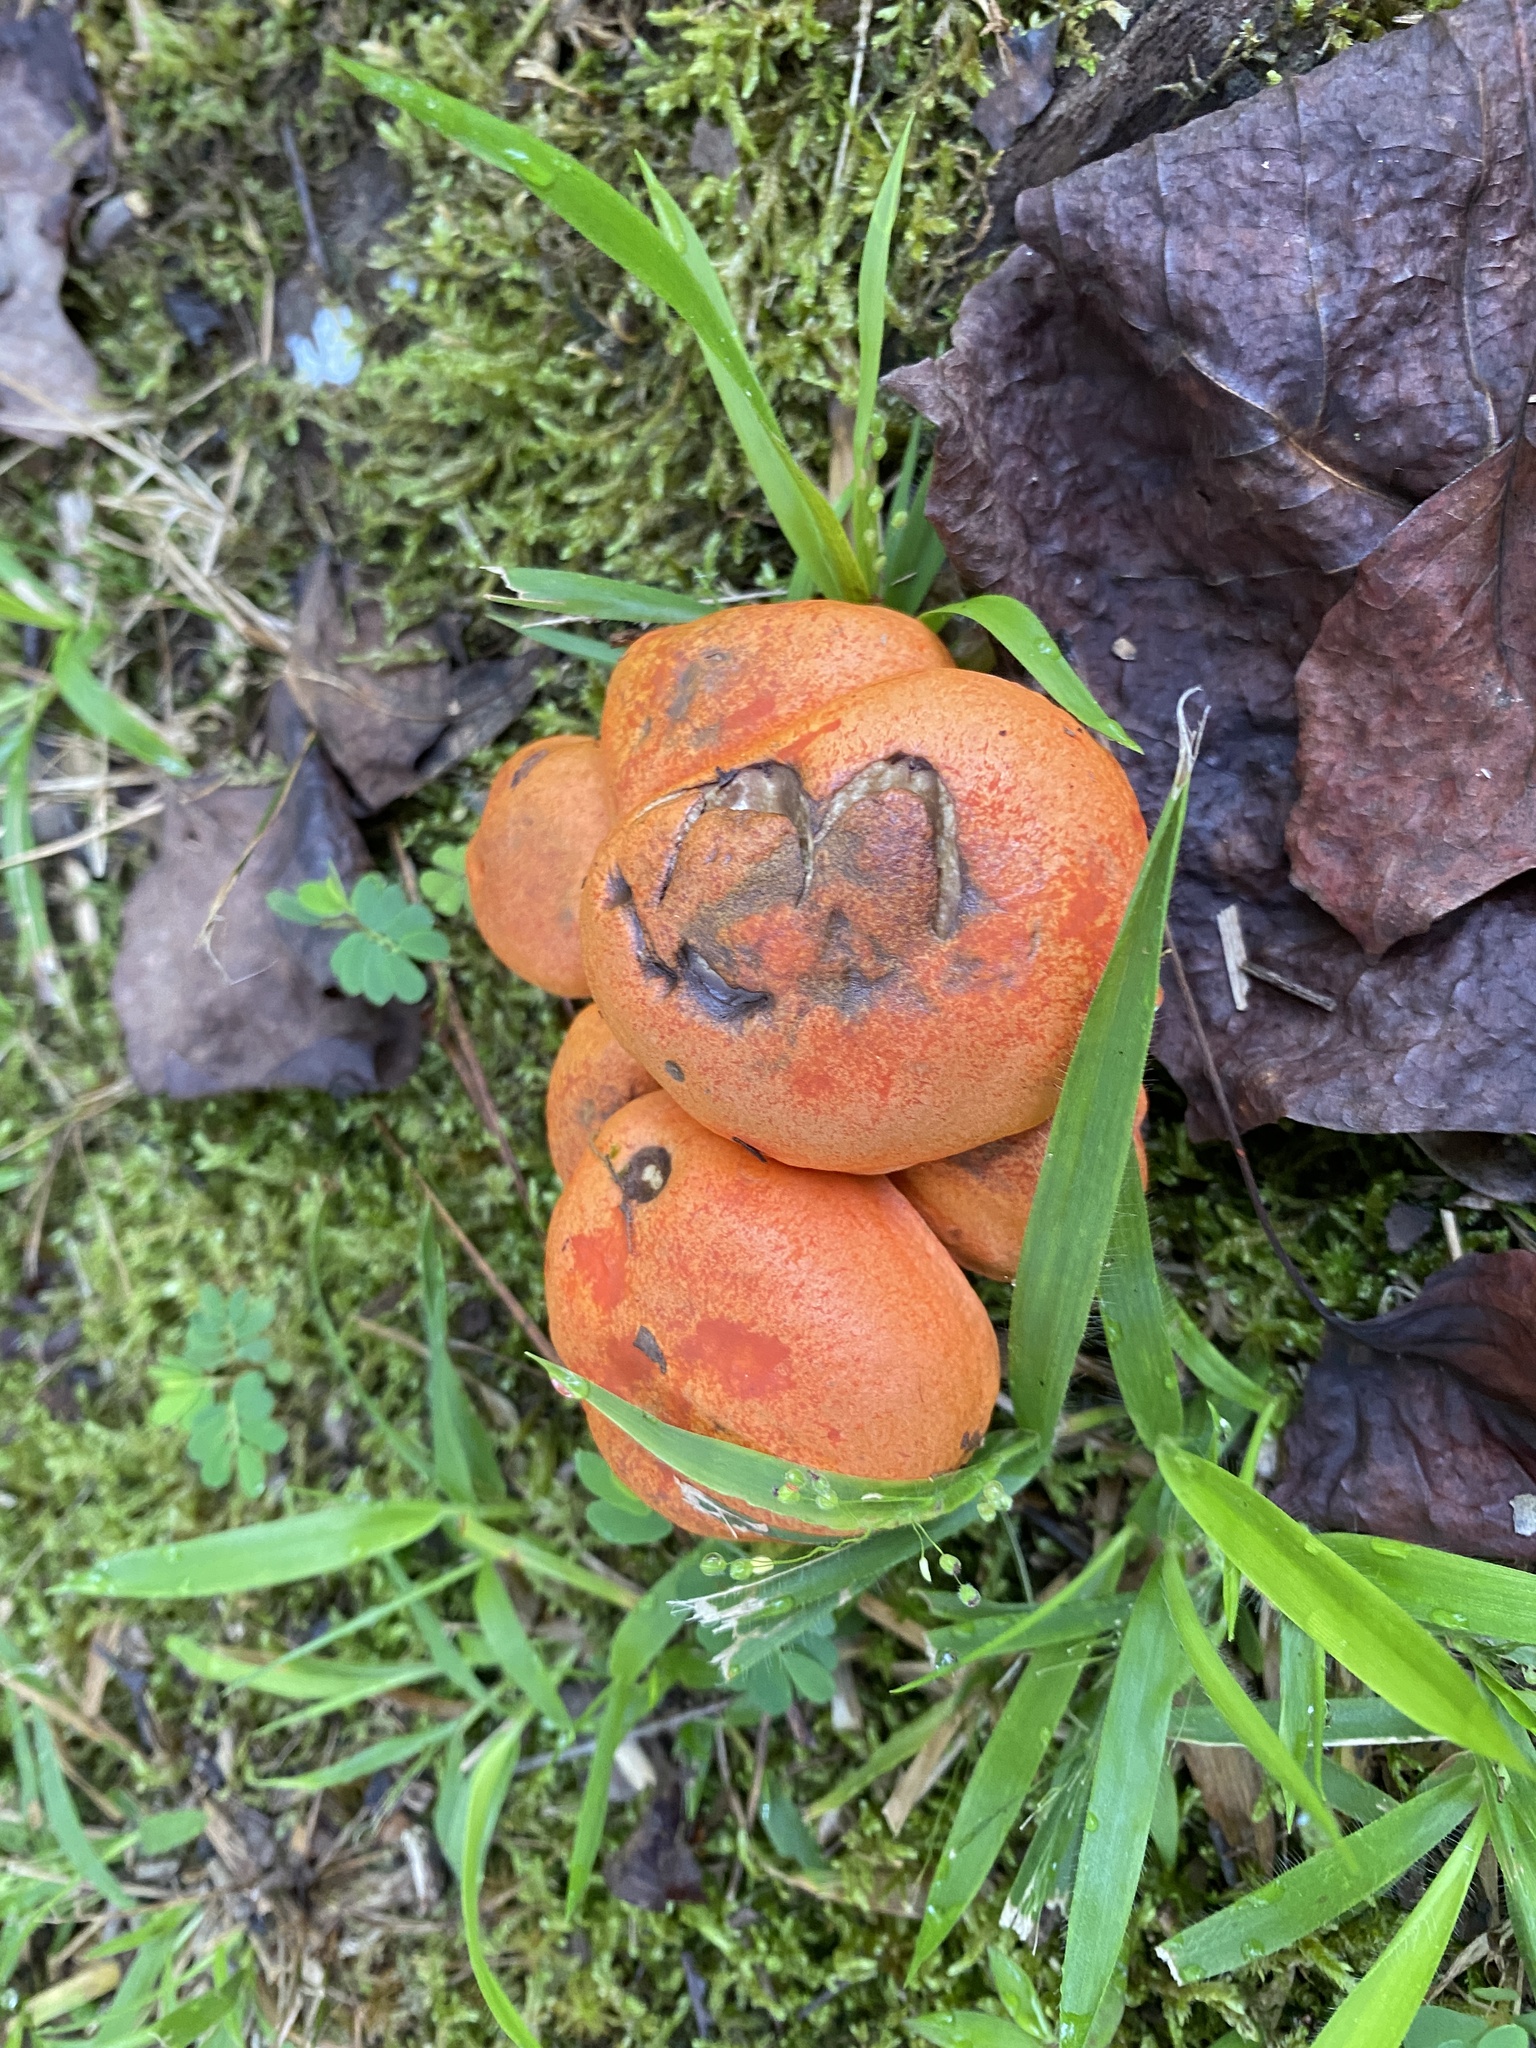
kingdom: Fungi
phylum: Basidiomycota
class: Agaricomycetes
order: Boletales
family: Boletaceae
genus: Tylopilus
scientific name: Tylopilus balloui
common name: Burnt-orange bolete
